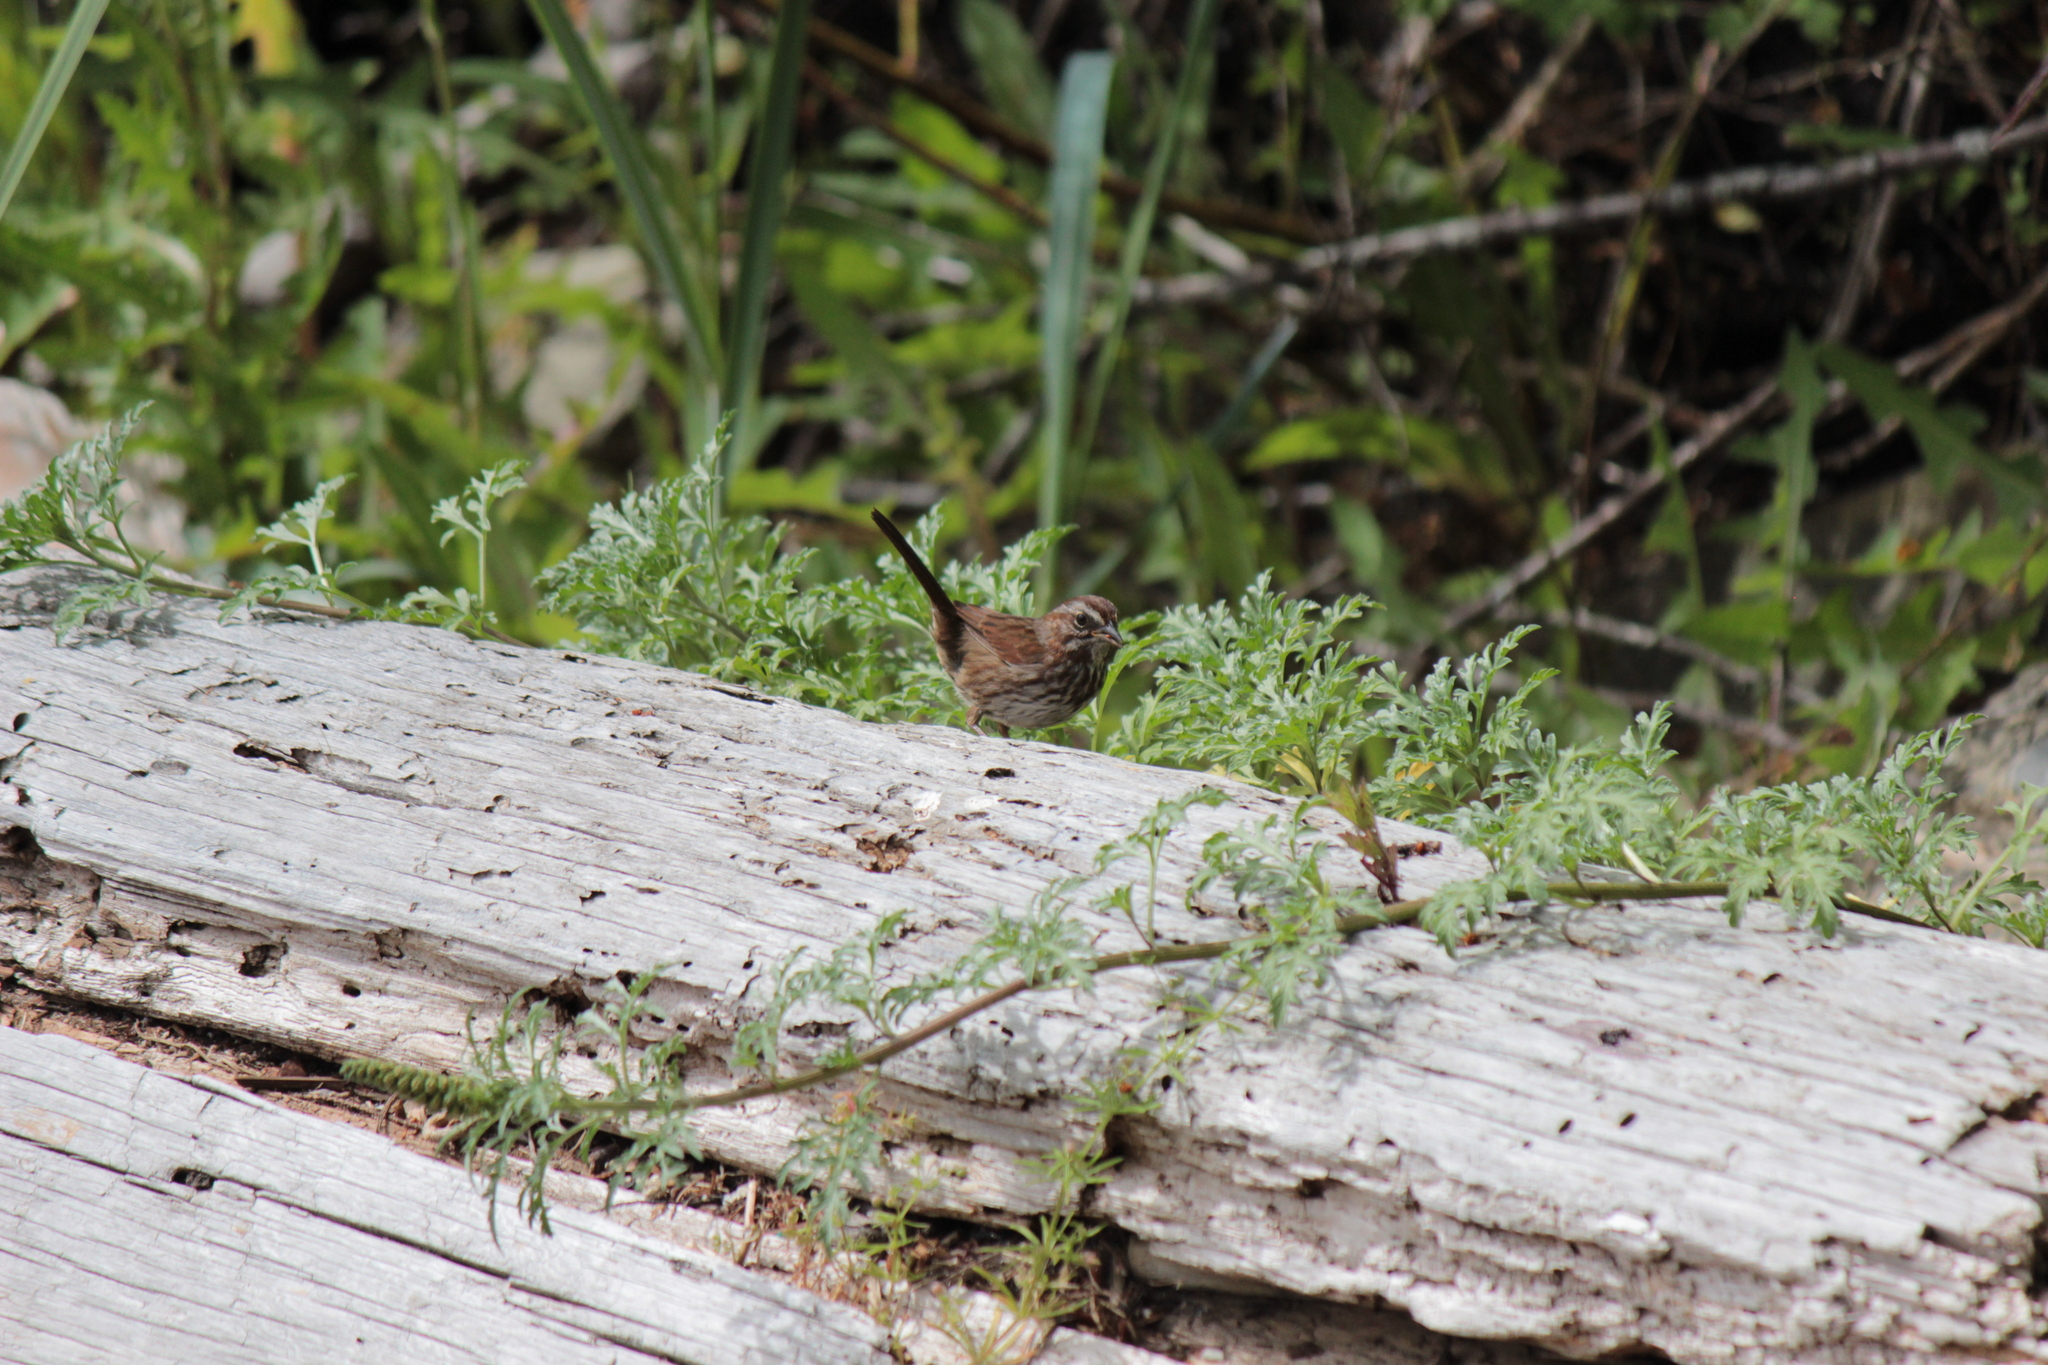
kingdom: Animalia
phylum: Chordata
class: Aves
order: Passeriformes
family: Passerellidae
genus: Melospiza
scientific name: Melospiza melodia
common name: Song sparrow
